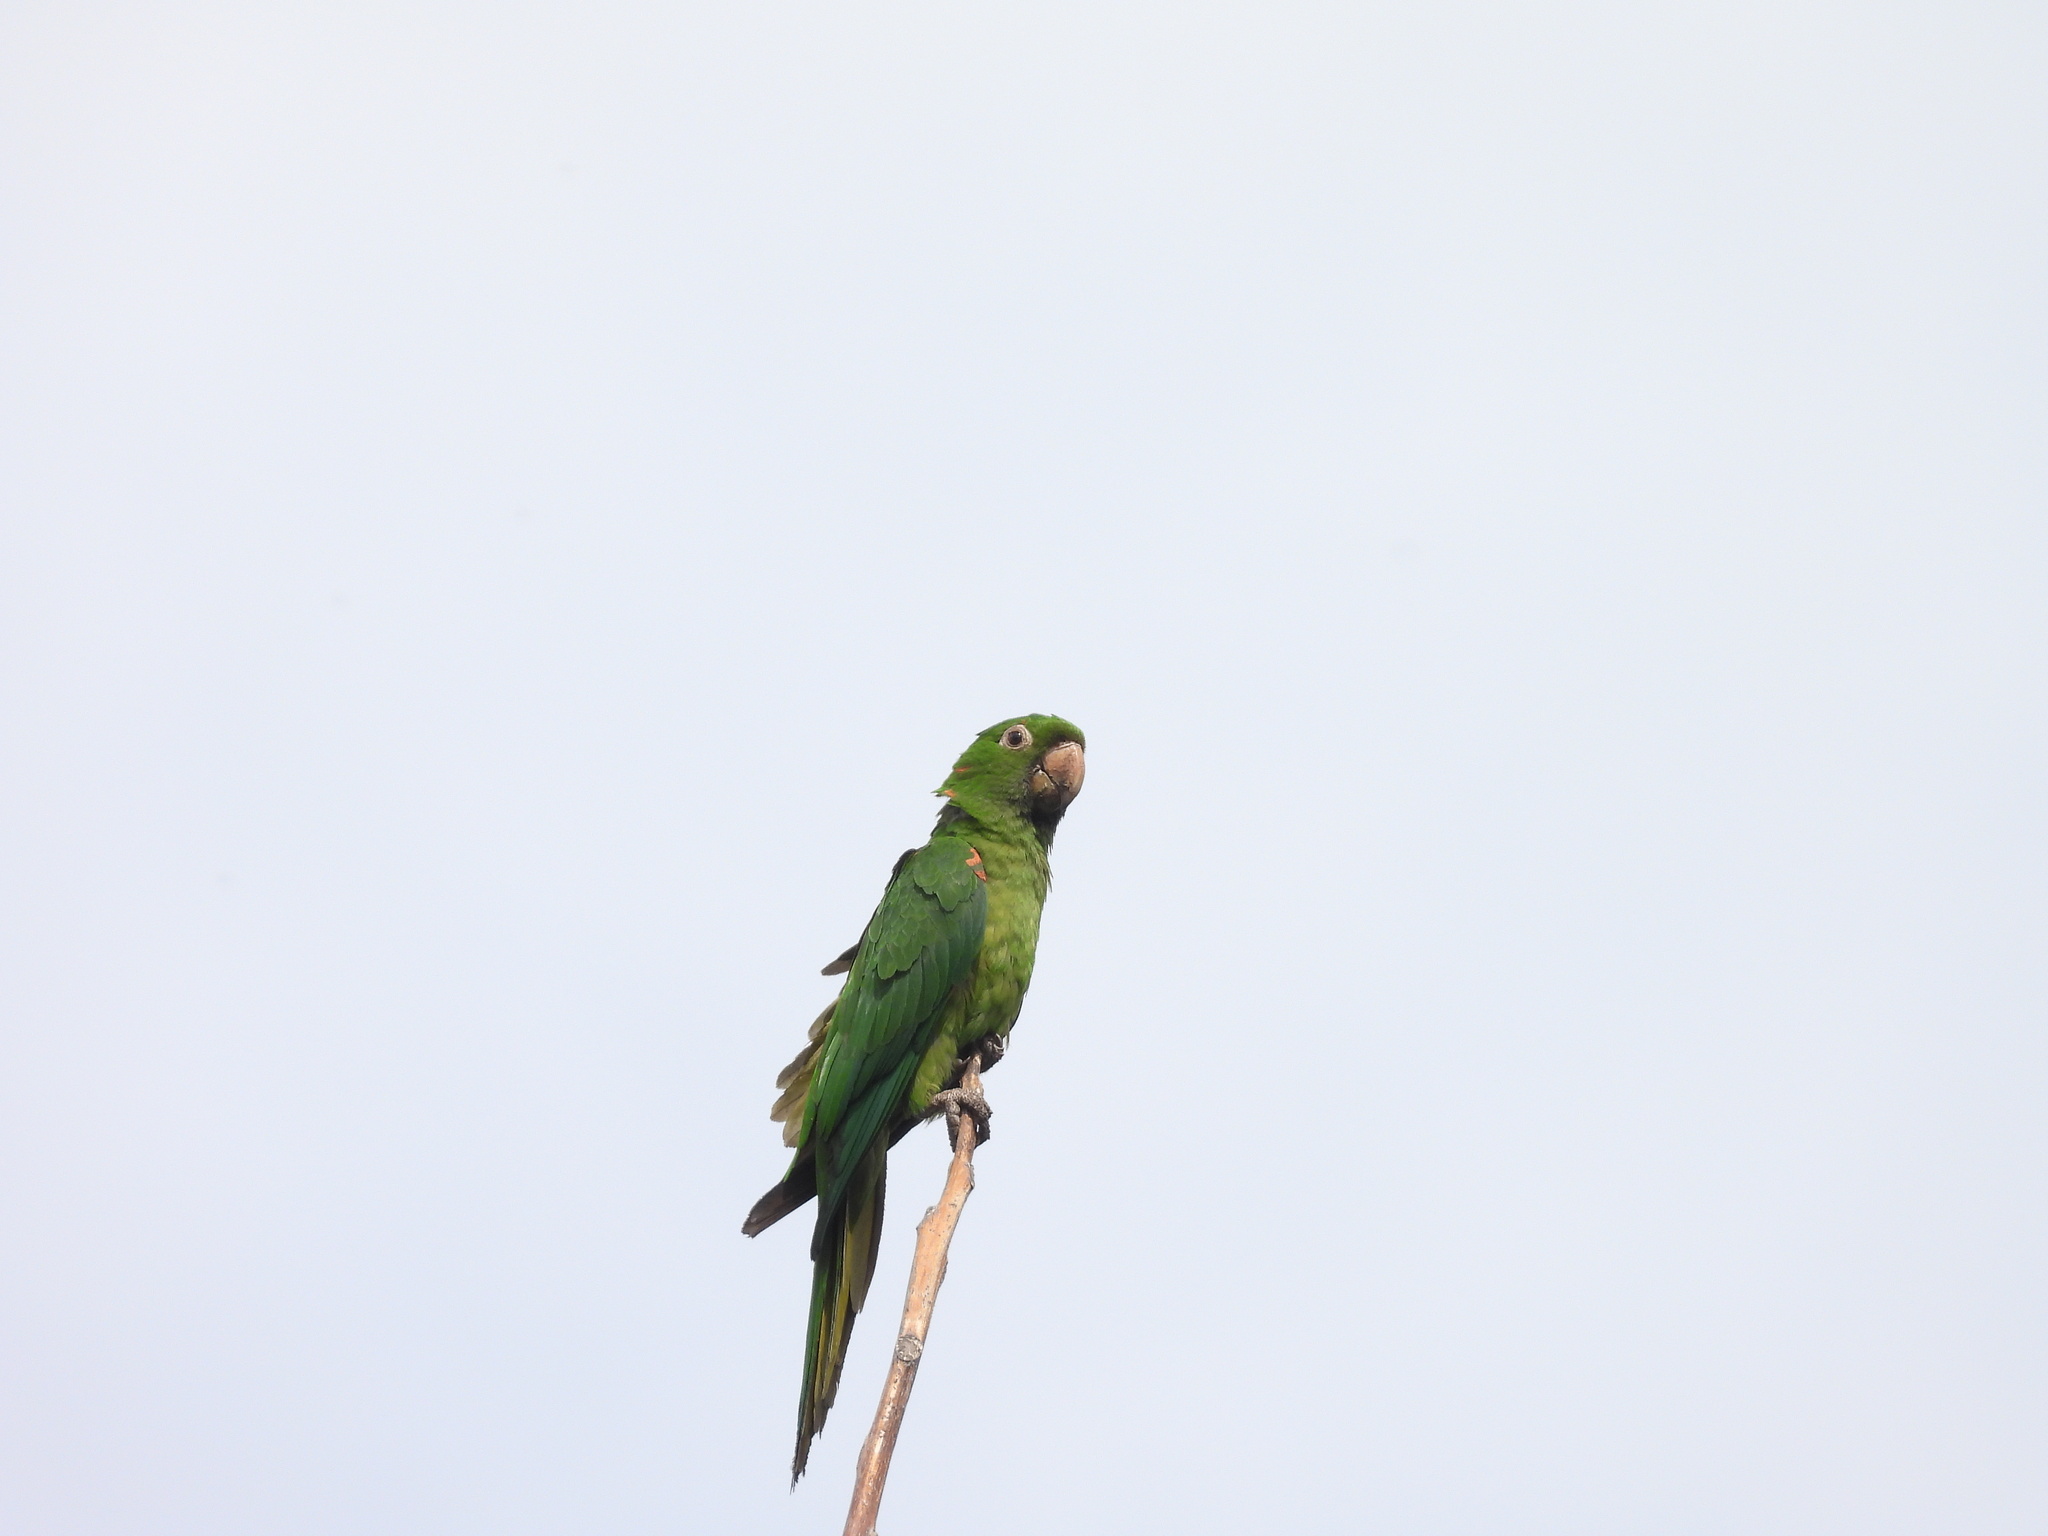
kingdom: Animalia
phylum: Chordata
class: Aves
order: Psittaciformes
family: Psittacidae
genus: Aratinga
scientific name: Aratinga leucophthalma
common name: White-eyed parakeet
